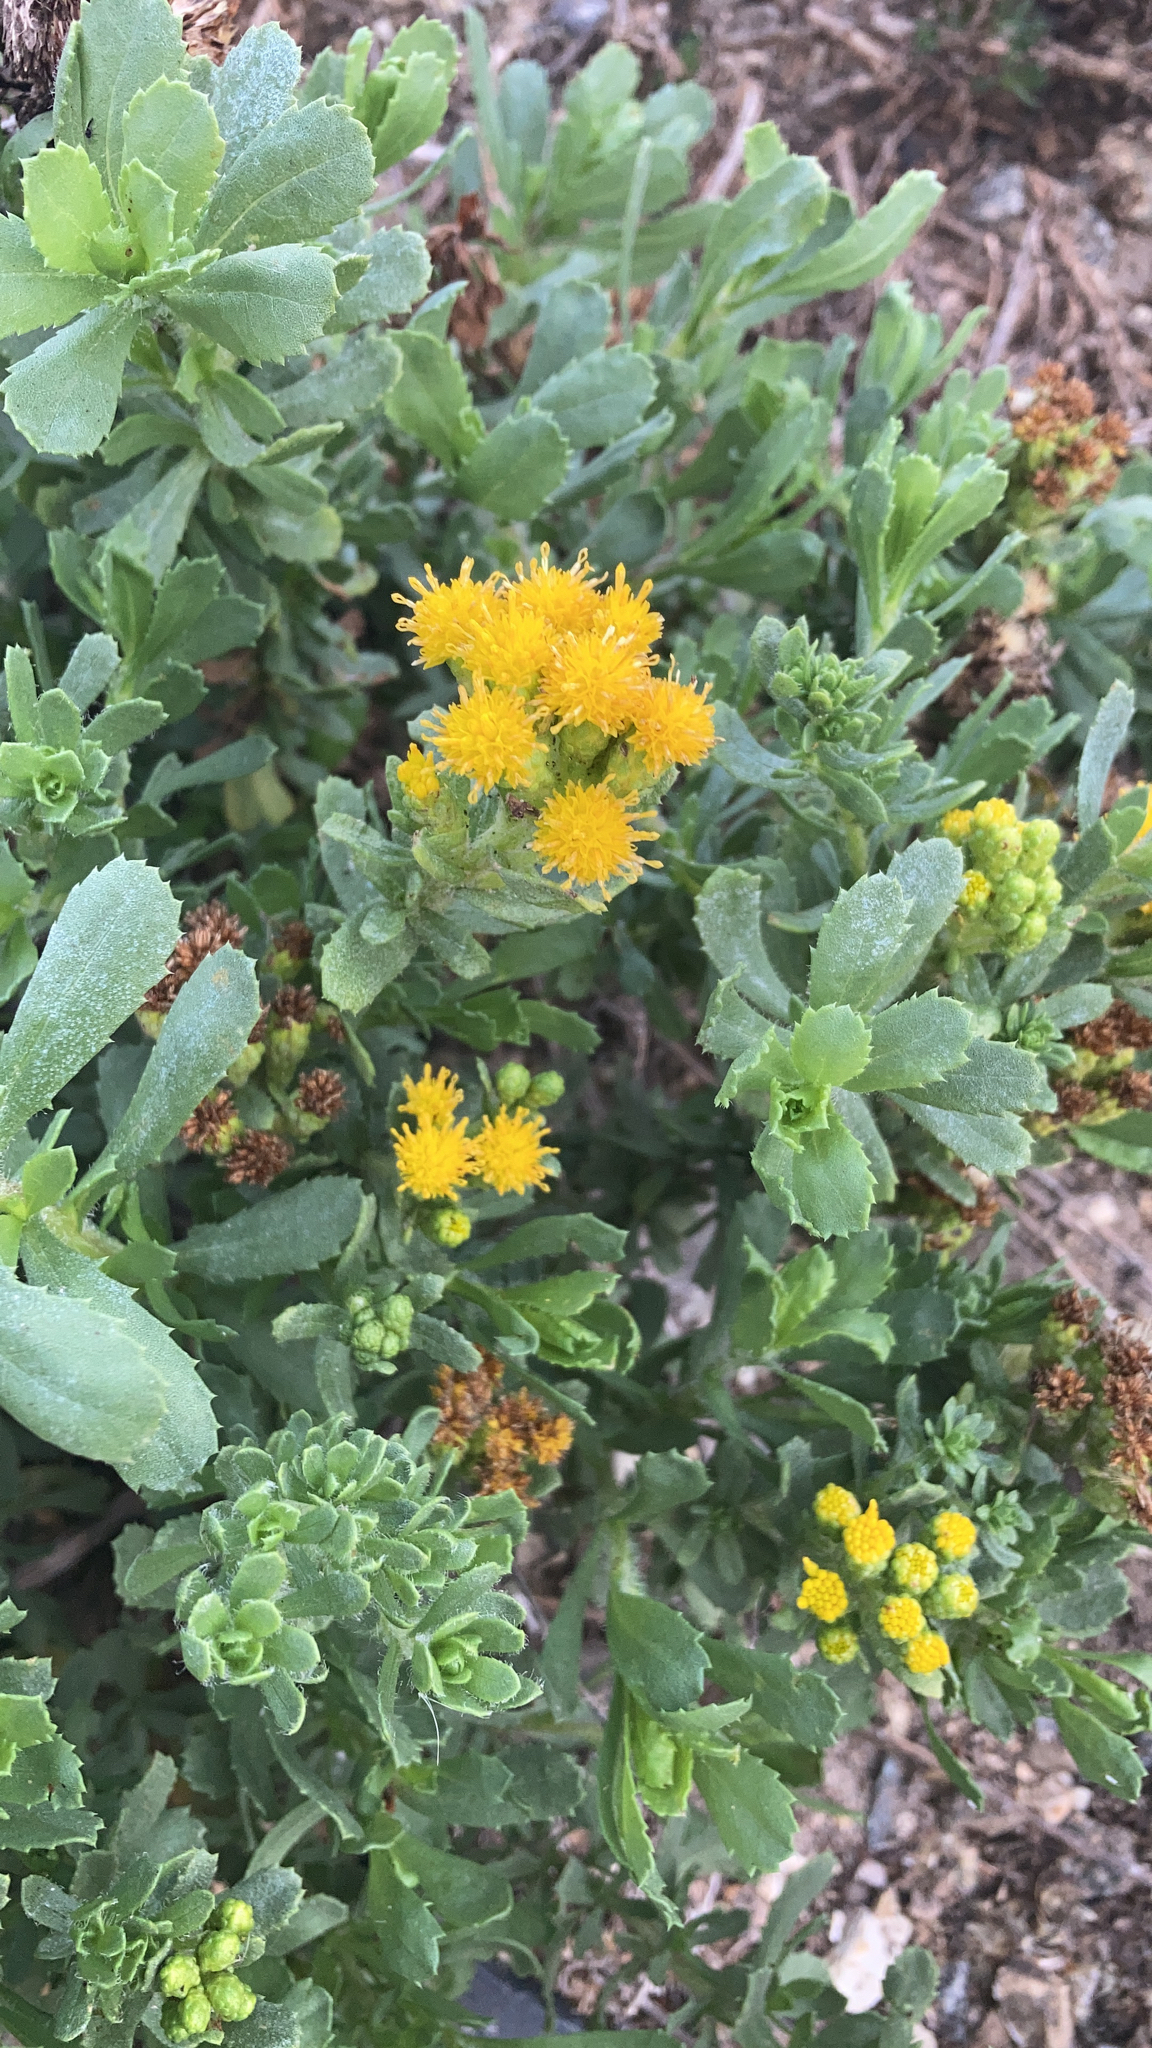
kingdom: Plantae
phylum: Tracheophyta
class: Magnoliopsida
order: Asterales
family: Asteraceae
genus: Isocoma
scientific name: Isocoma menziesii
